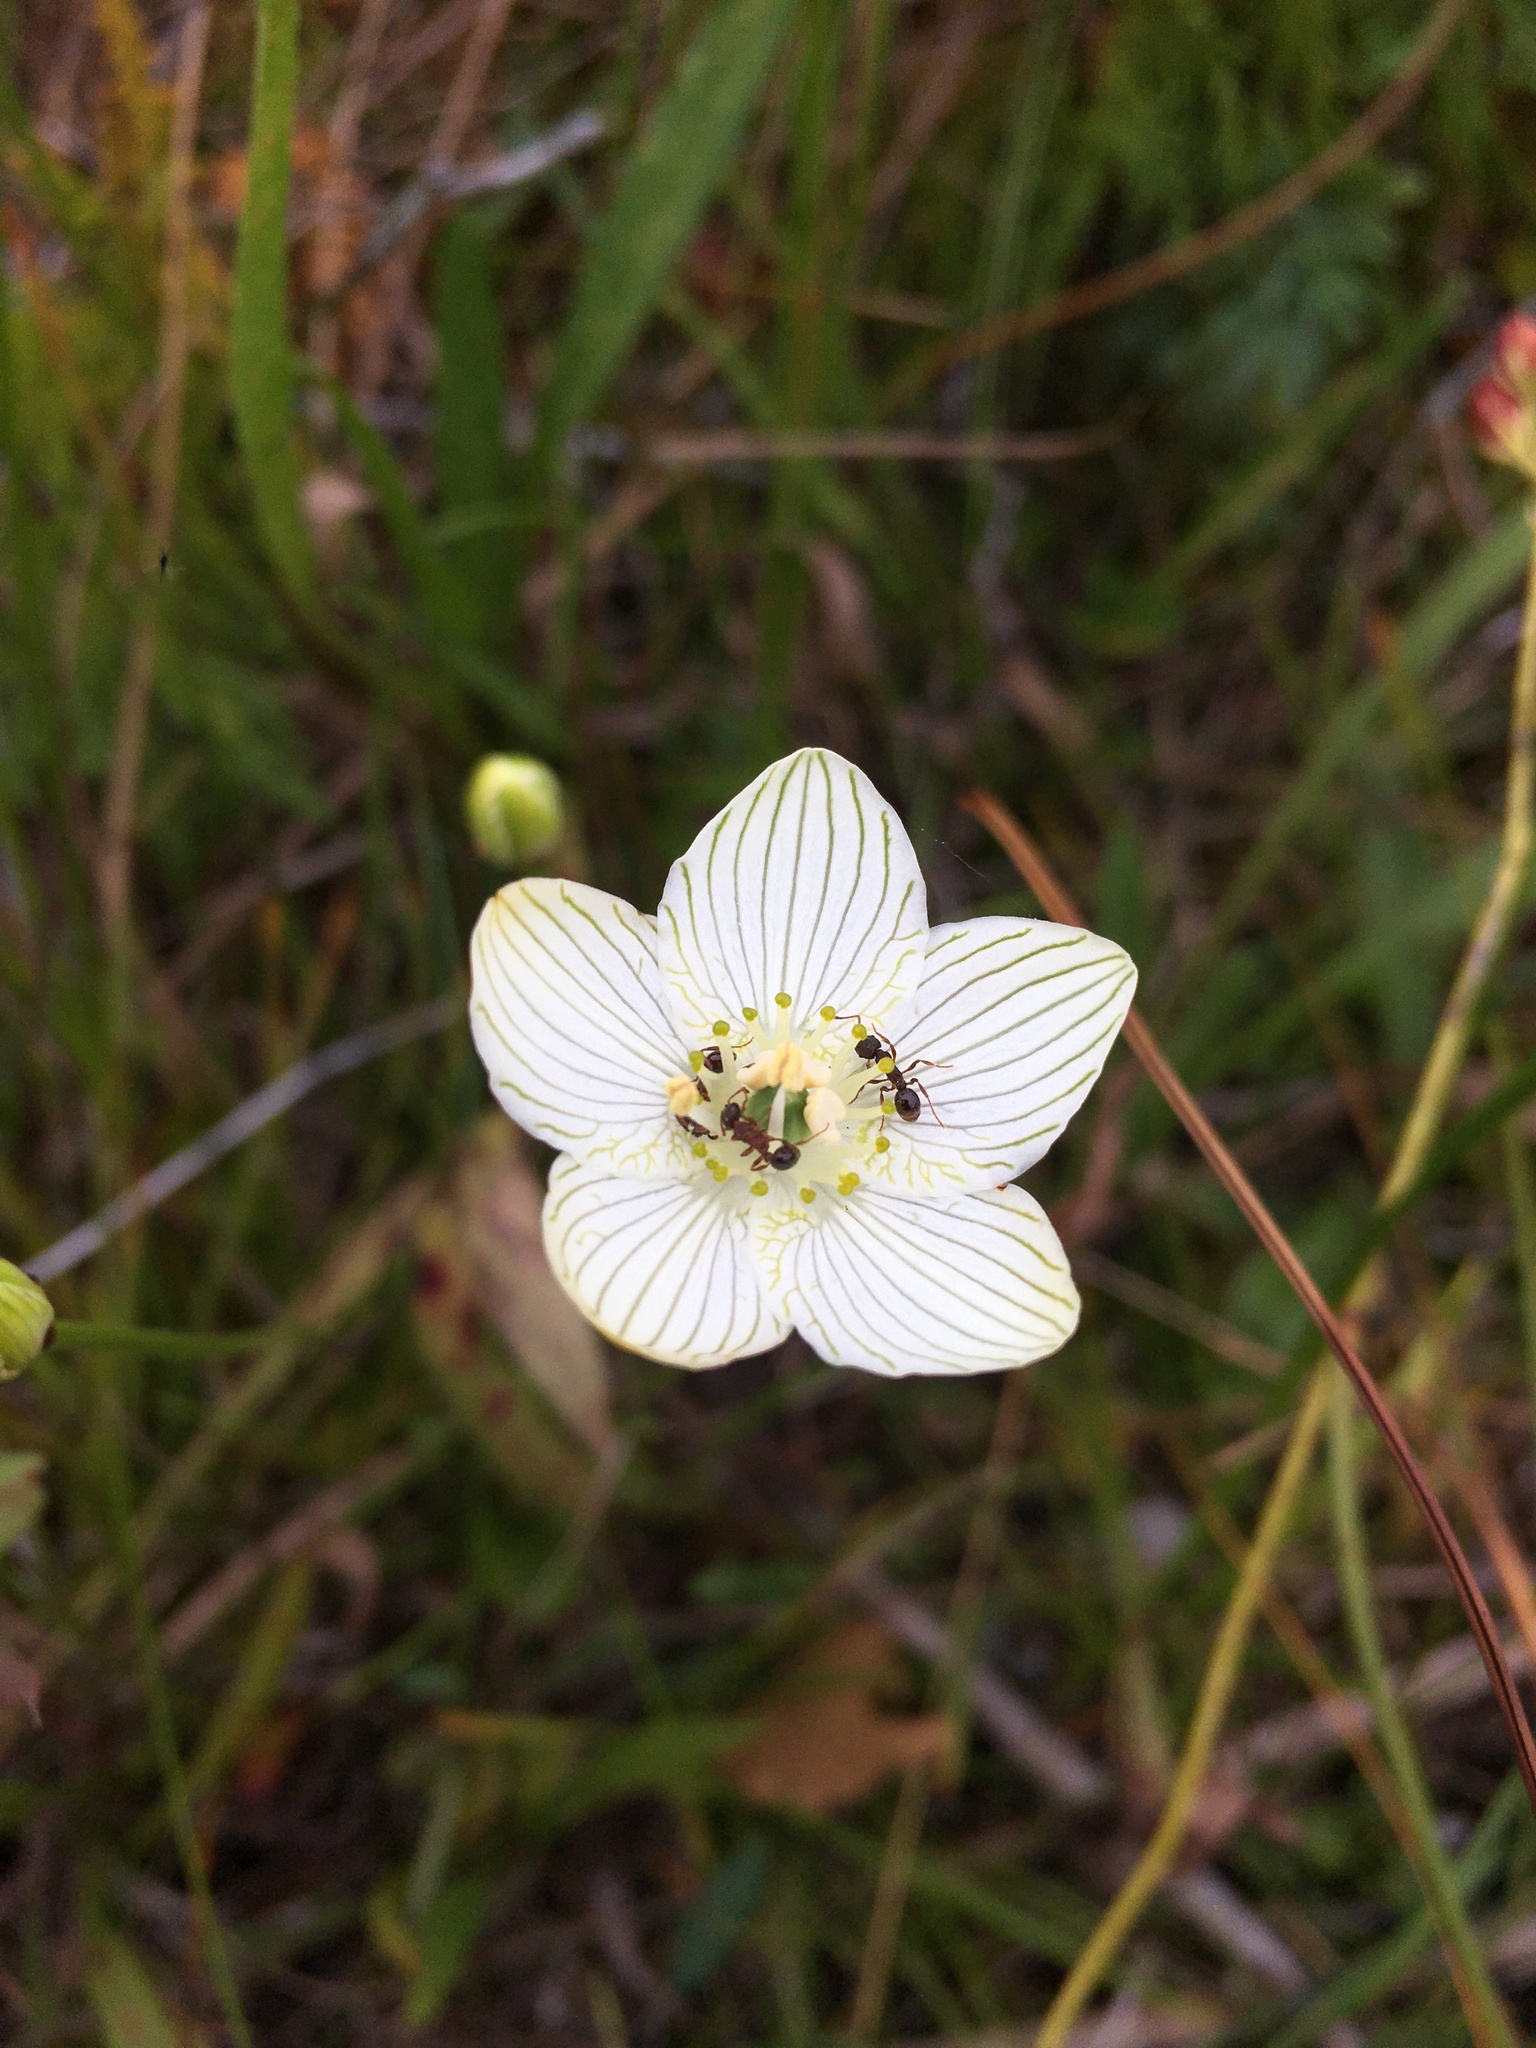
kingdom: Plantae
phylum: Tracheophyta
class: Magnoliopsida
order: Celastrales
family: Parnassiaceae
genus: Parnassia
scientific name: Parnassia glauca
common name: American grass-of-parnassus
